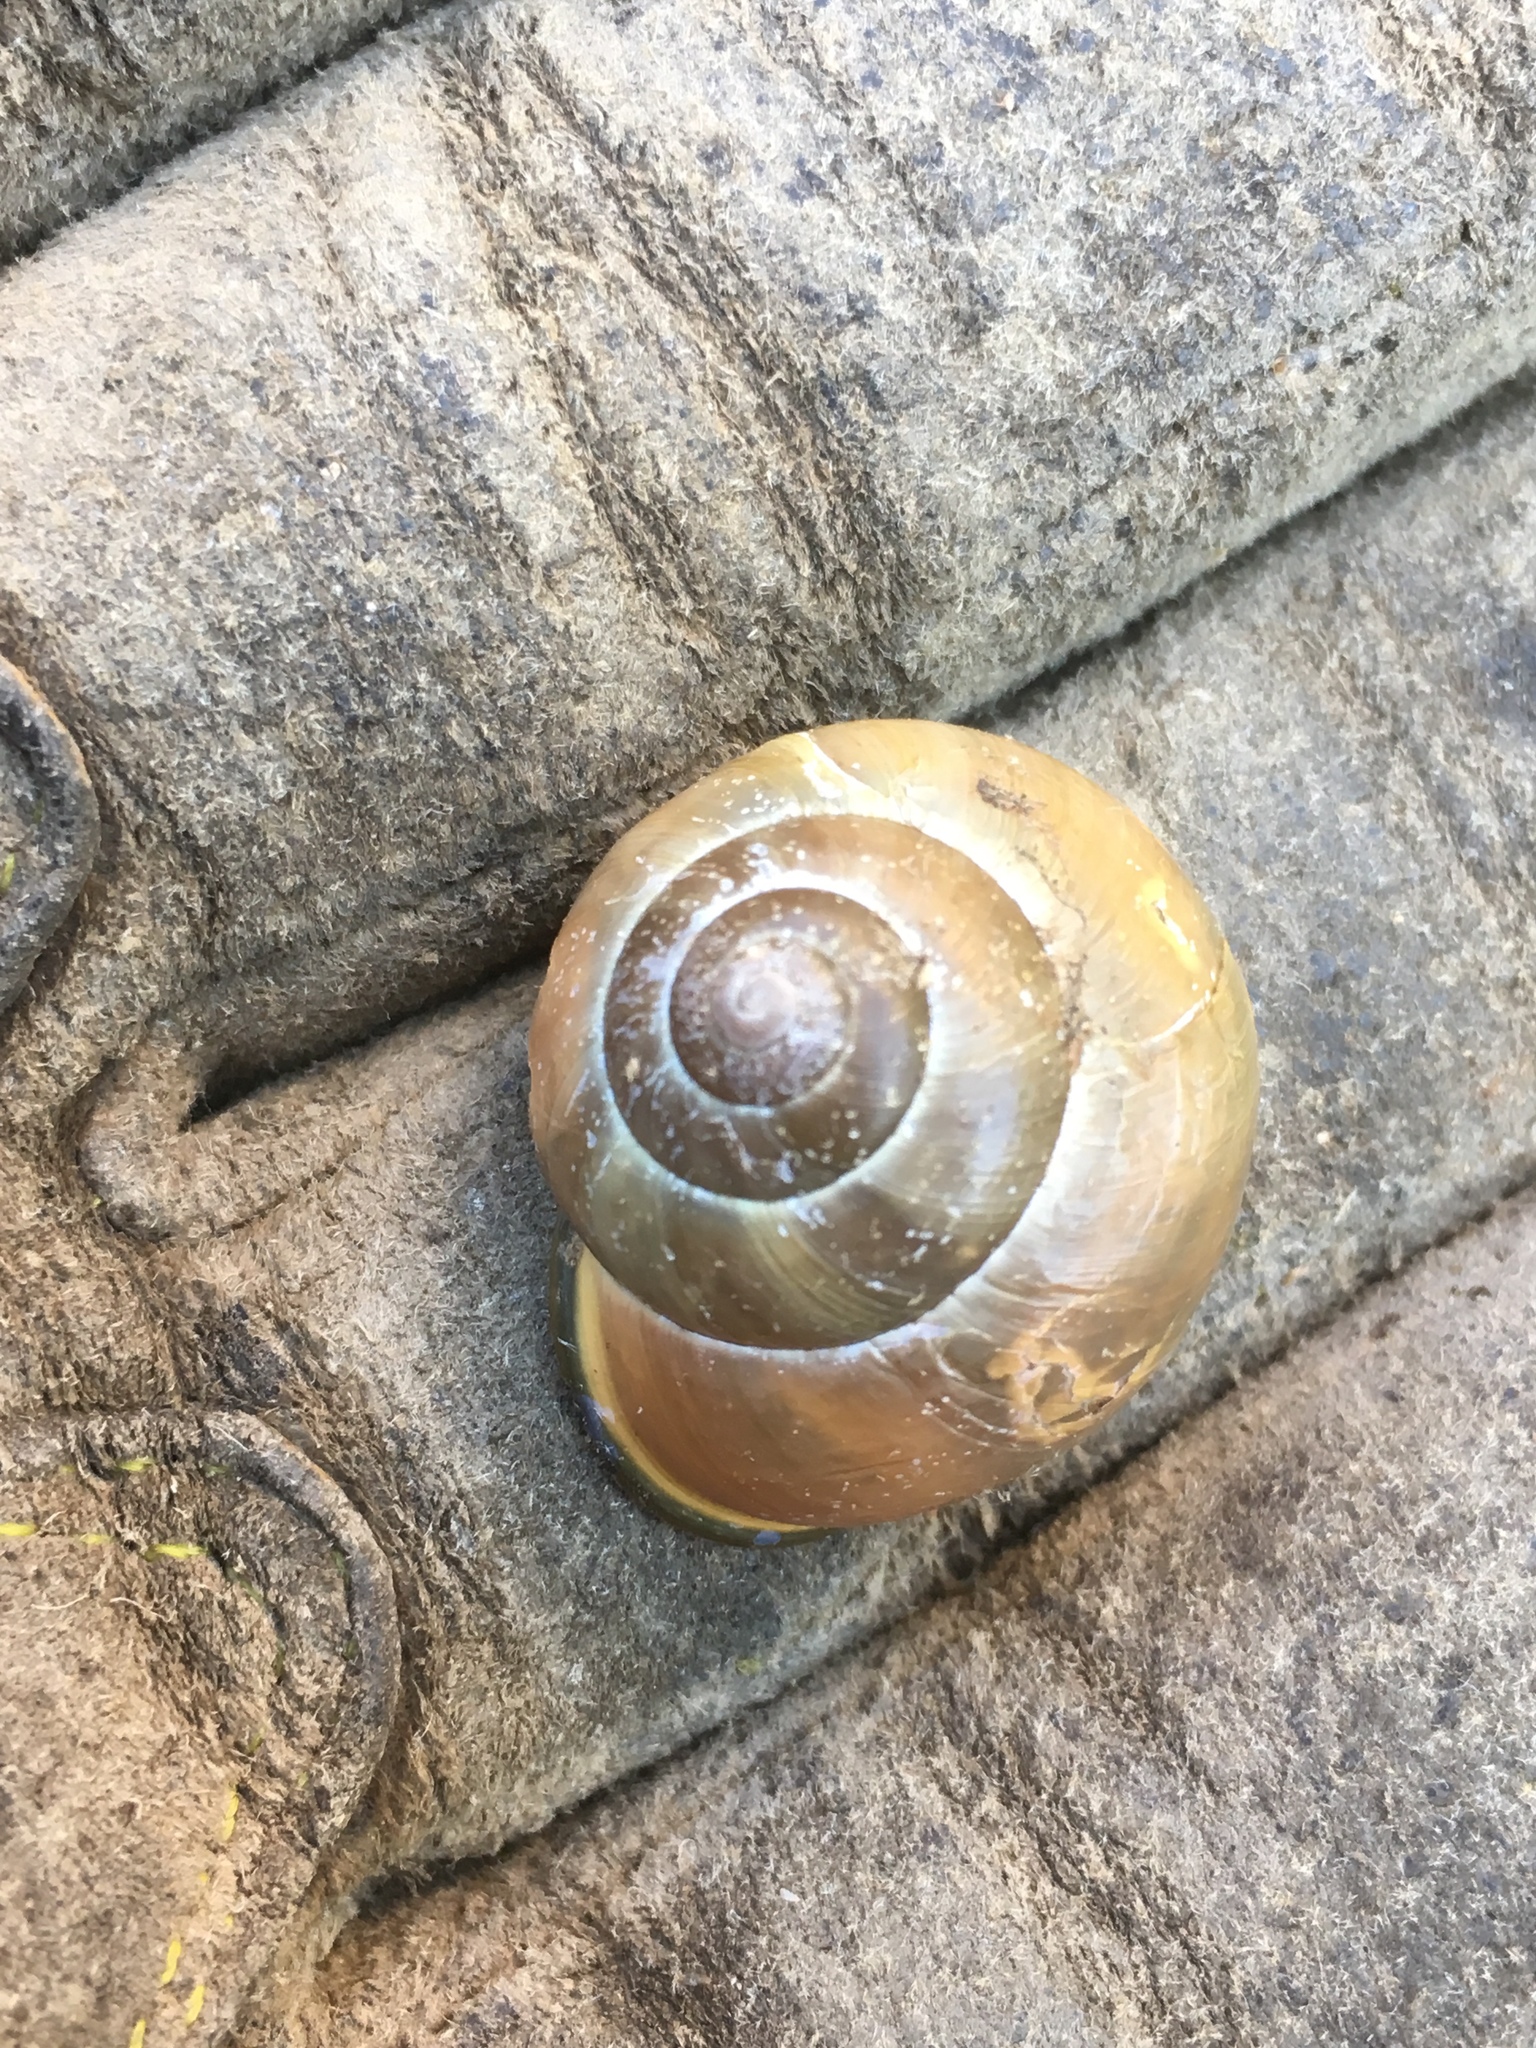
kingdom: Animalia
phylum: Mollusca
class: Gastropoda
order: Stylommatophora
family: Helicidae
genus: Cepaea
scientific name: Cepaea nemoralis
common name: Grovesnail
